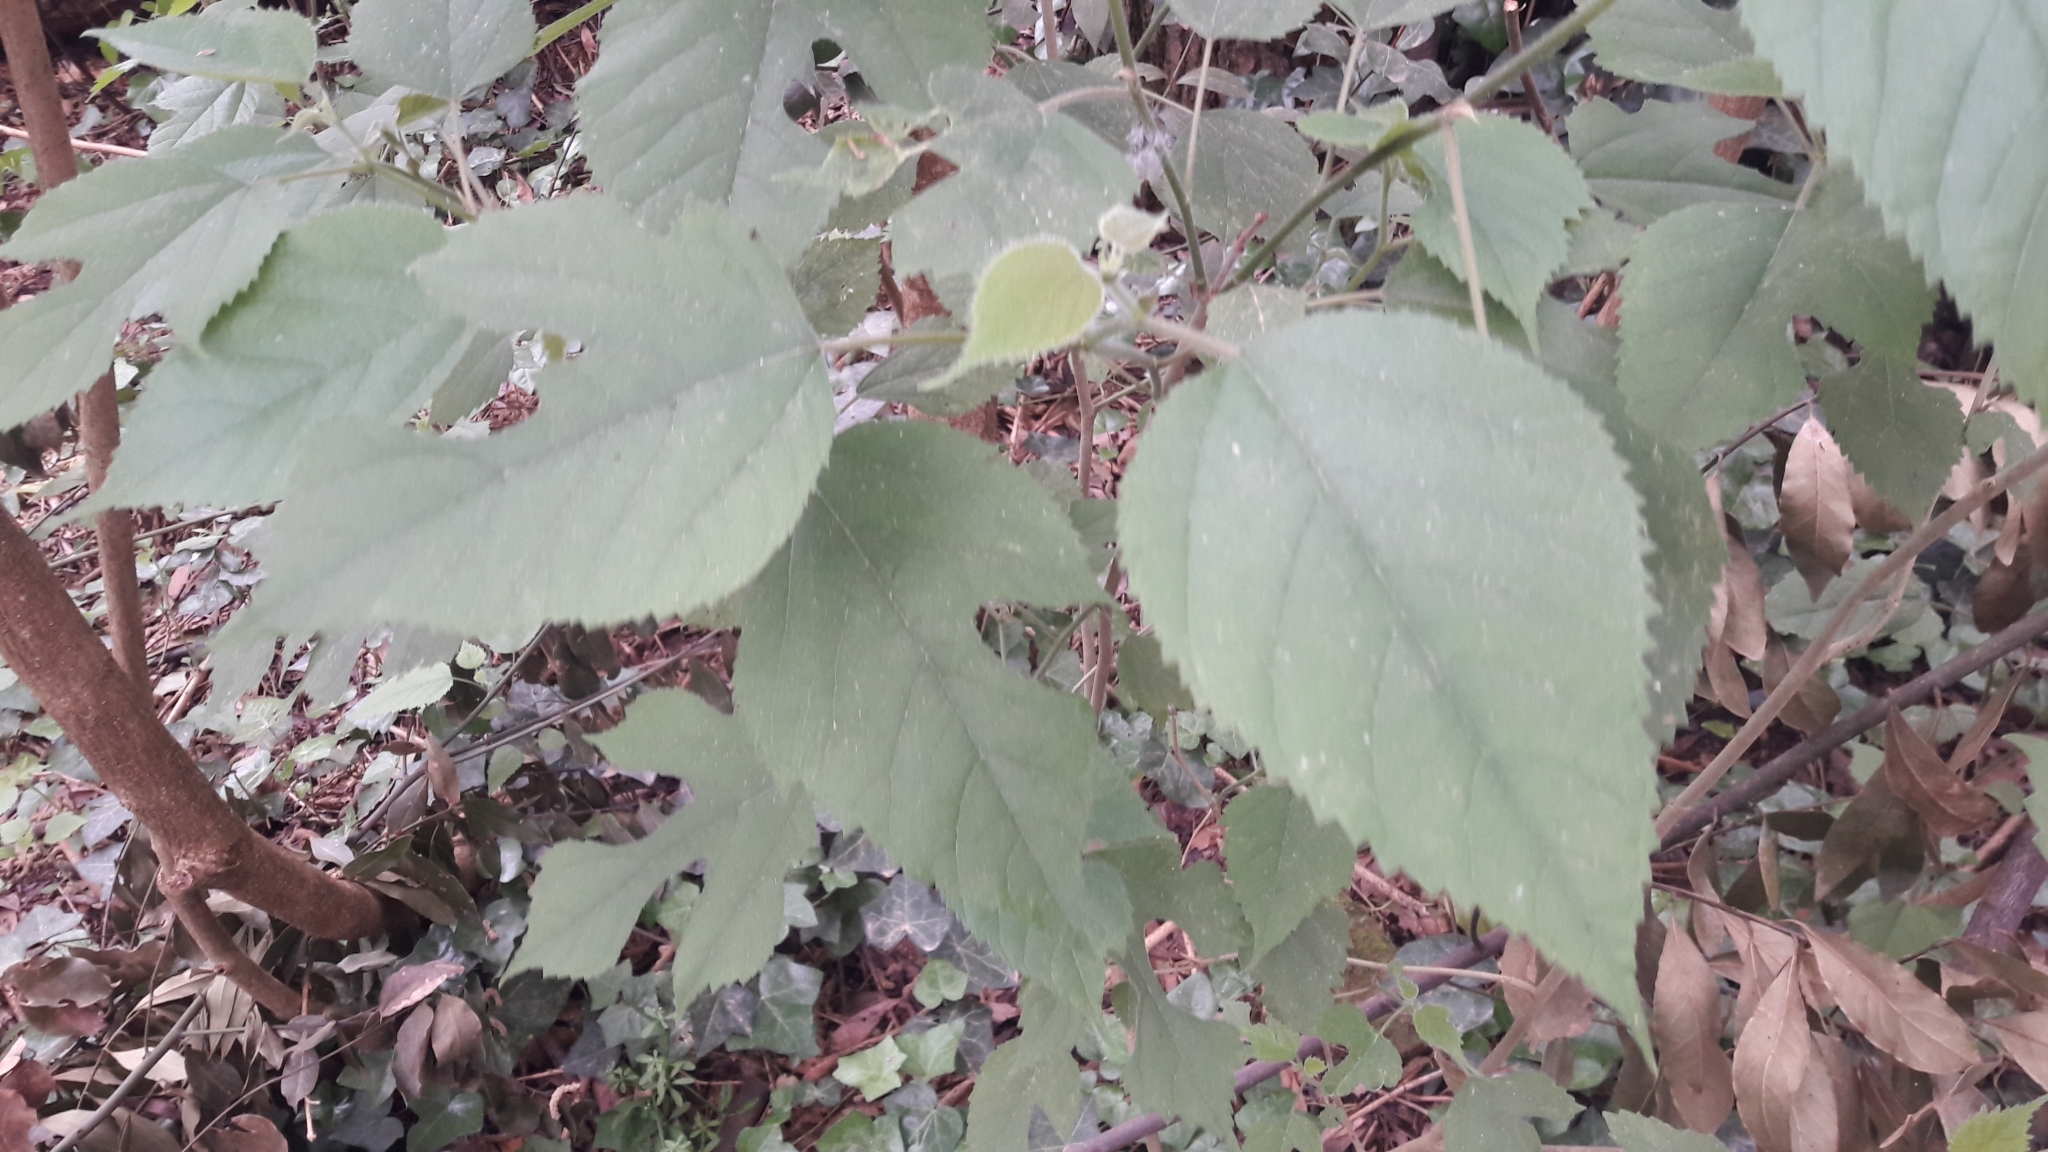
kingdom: Plantae
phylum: Tracheophyta
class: Magnoliopsida
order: Rosales
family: Moraceae
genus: Broussonetia
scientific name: Broussonetia papyrifera
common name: Paper mulberry
